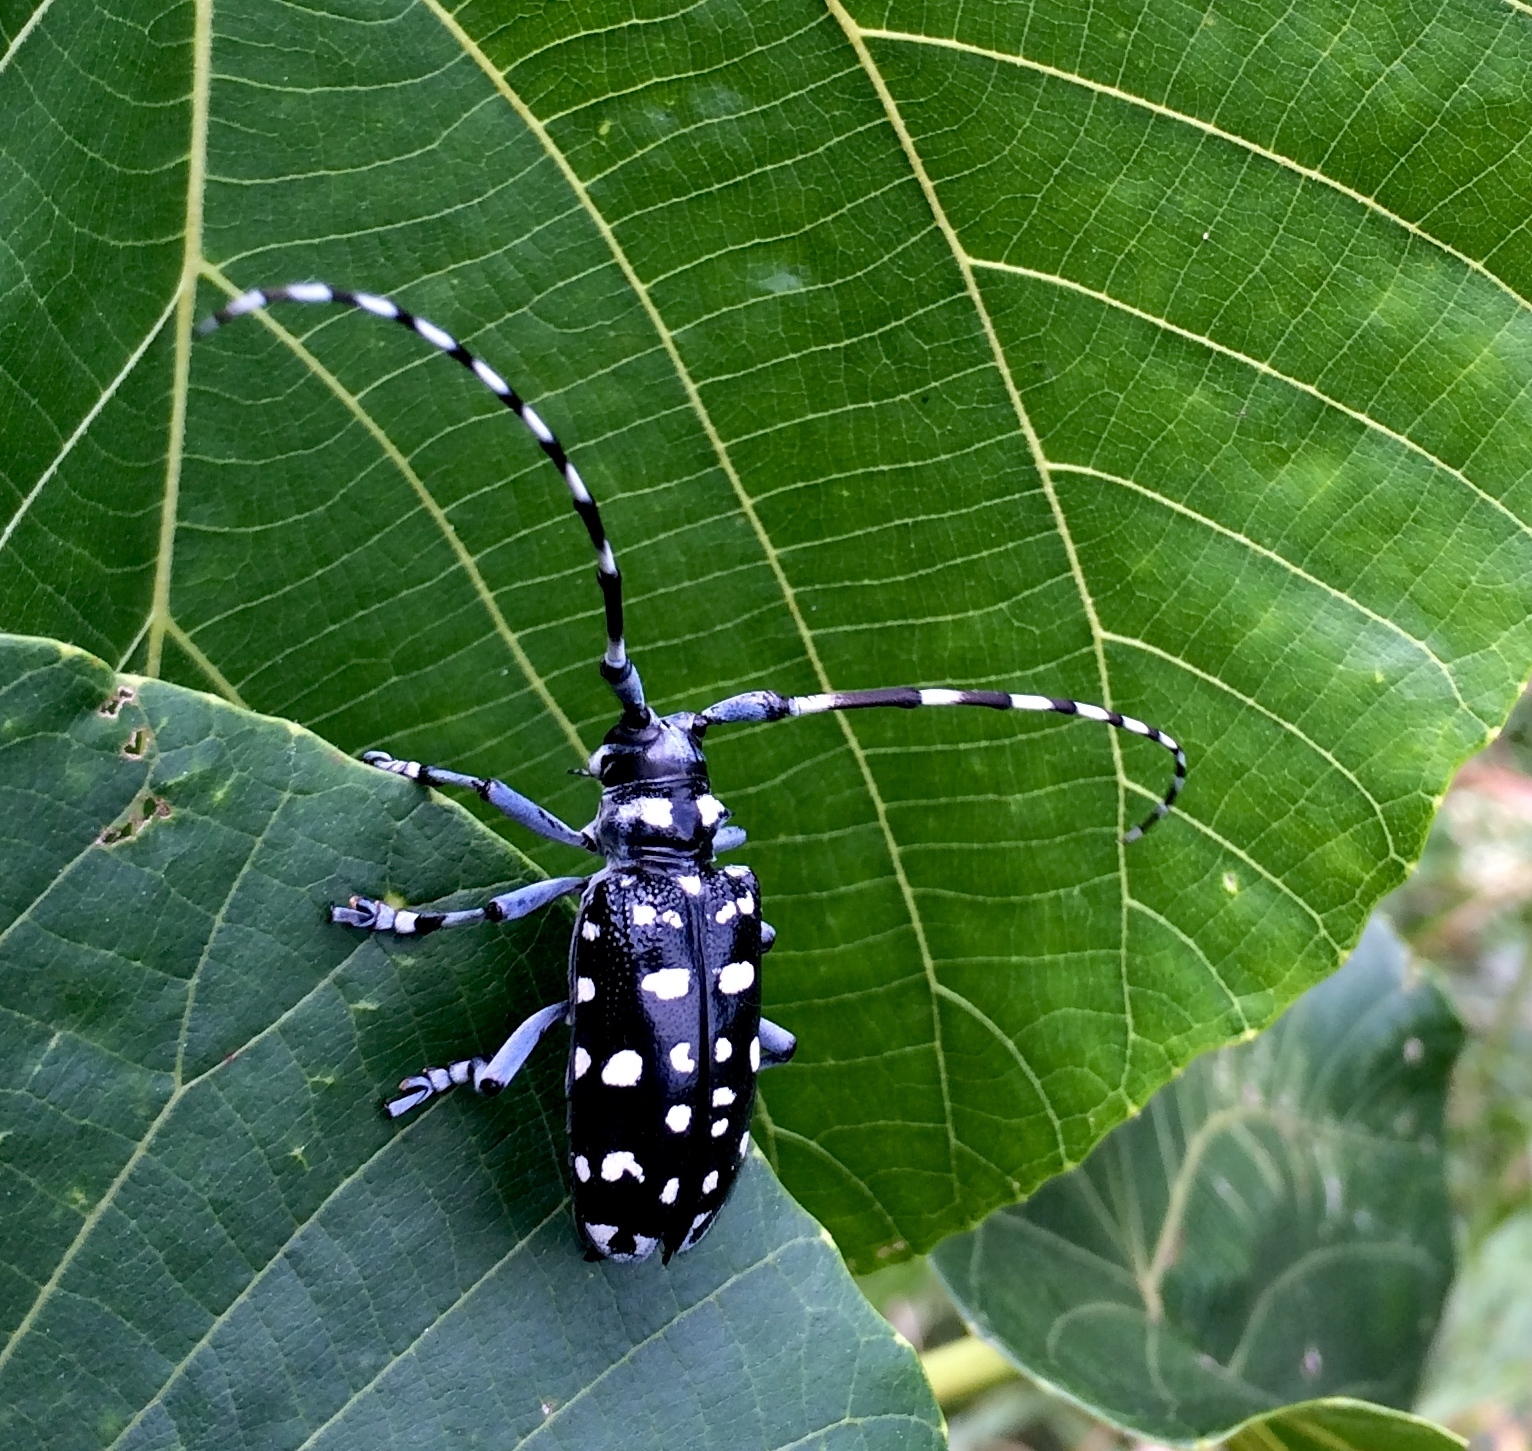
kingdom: Animalia
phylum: Arthropoda
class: Insecta
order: Coleoptera
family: Cerambycidae
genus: Anoplophora
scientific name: Anoplophora macularia
